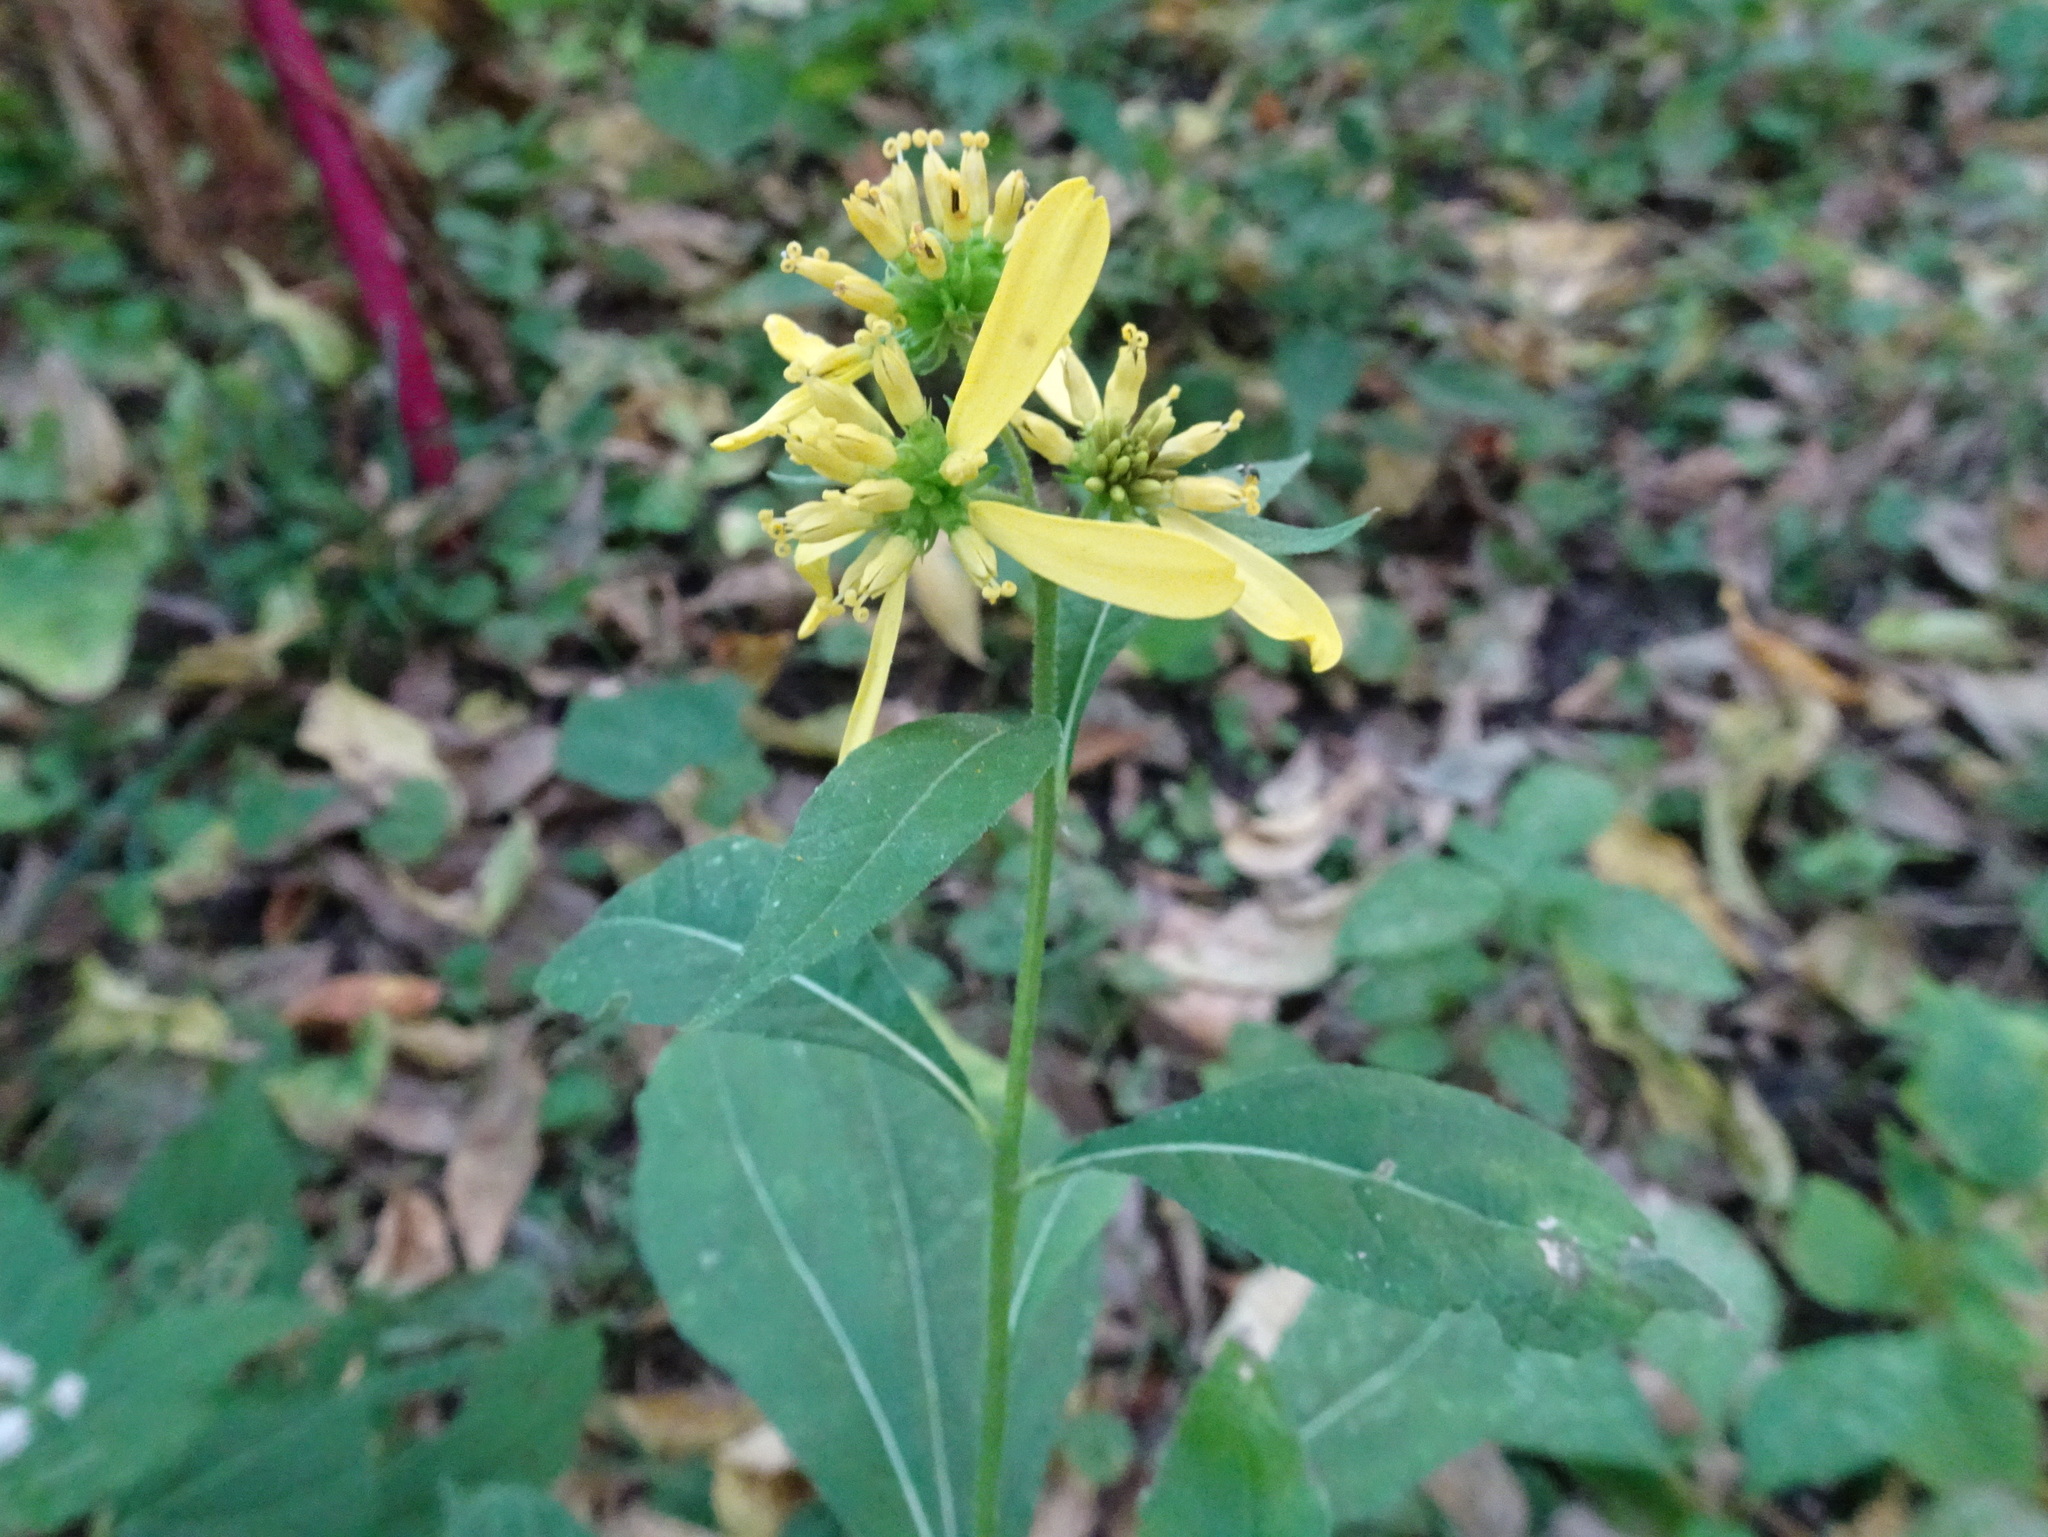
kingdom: Plantae
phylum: Tracheophyta
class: Magnoliopsida
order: Asterales
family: Asteraceae
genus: Verbesina
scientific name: Verbesina alternifolia
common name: Wingstem
